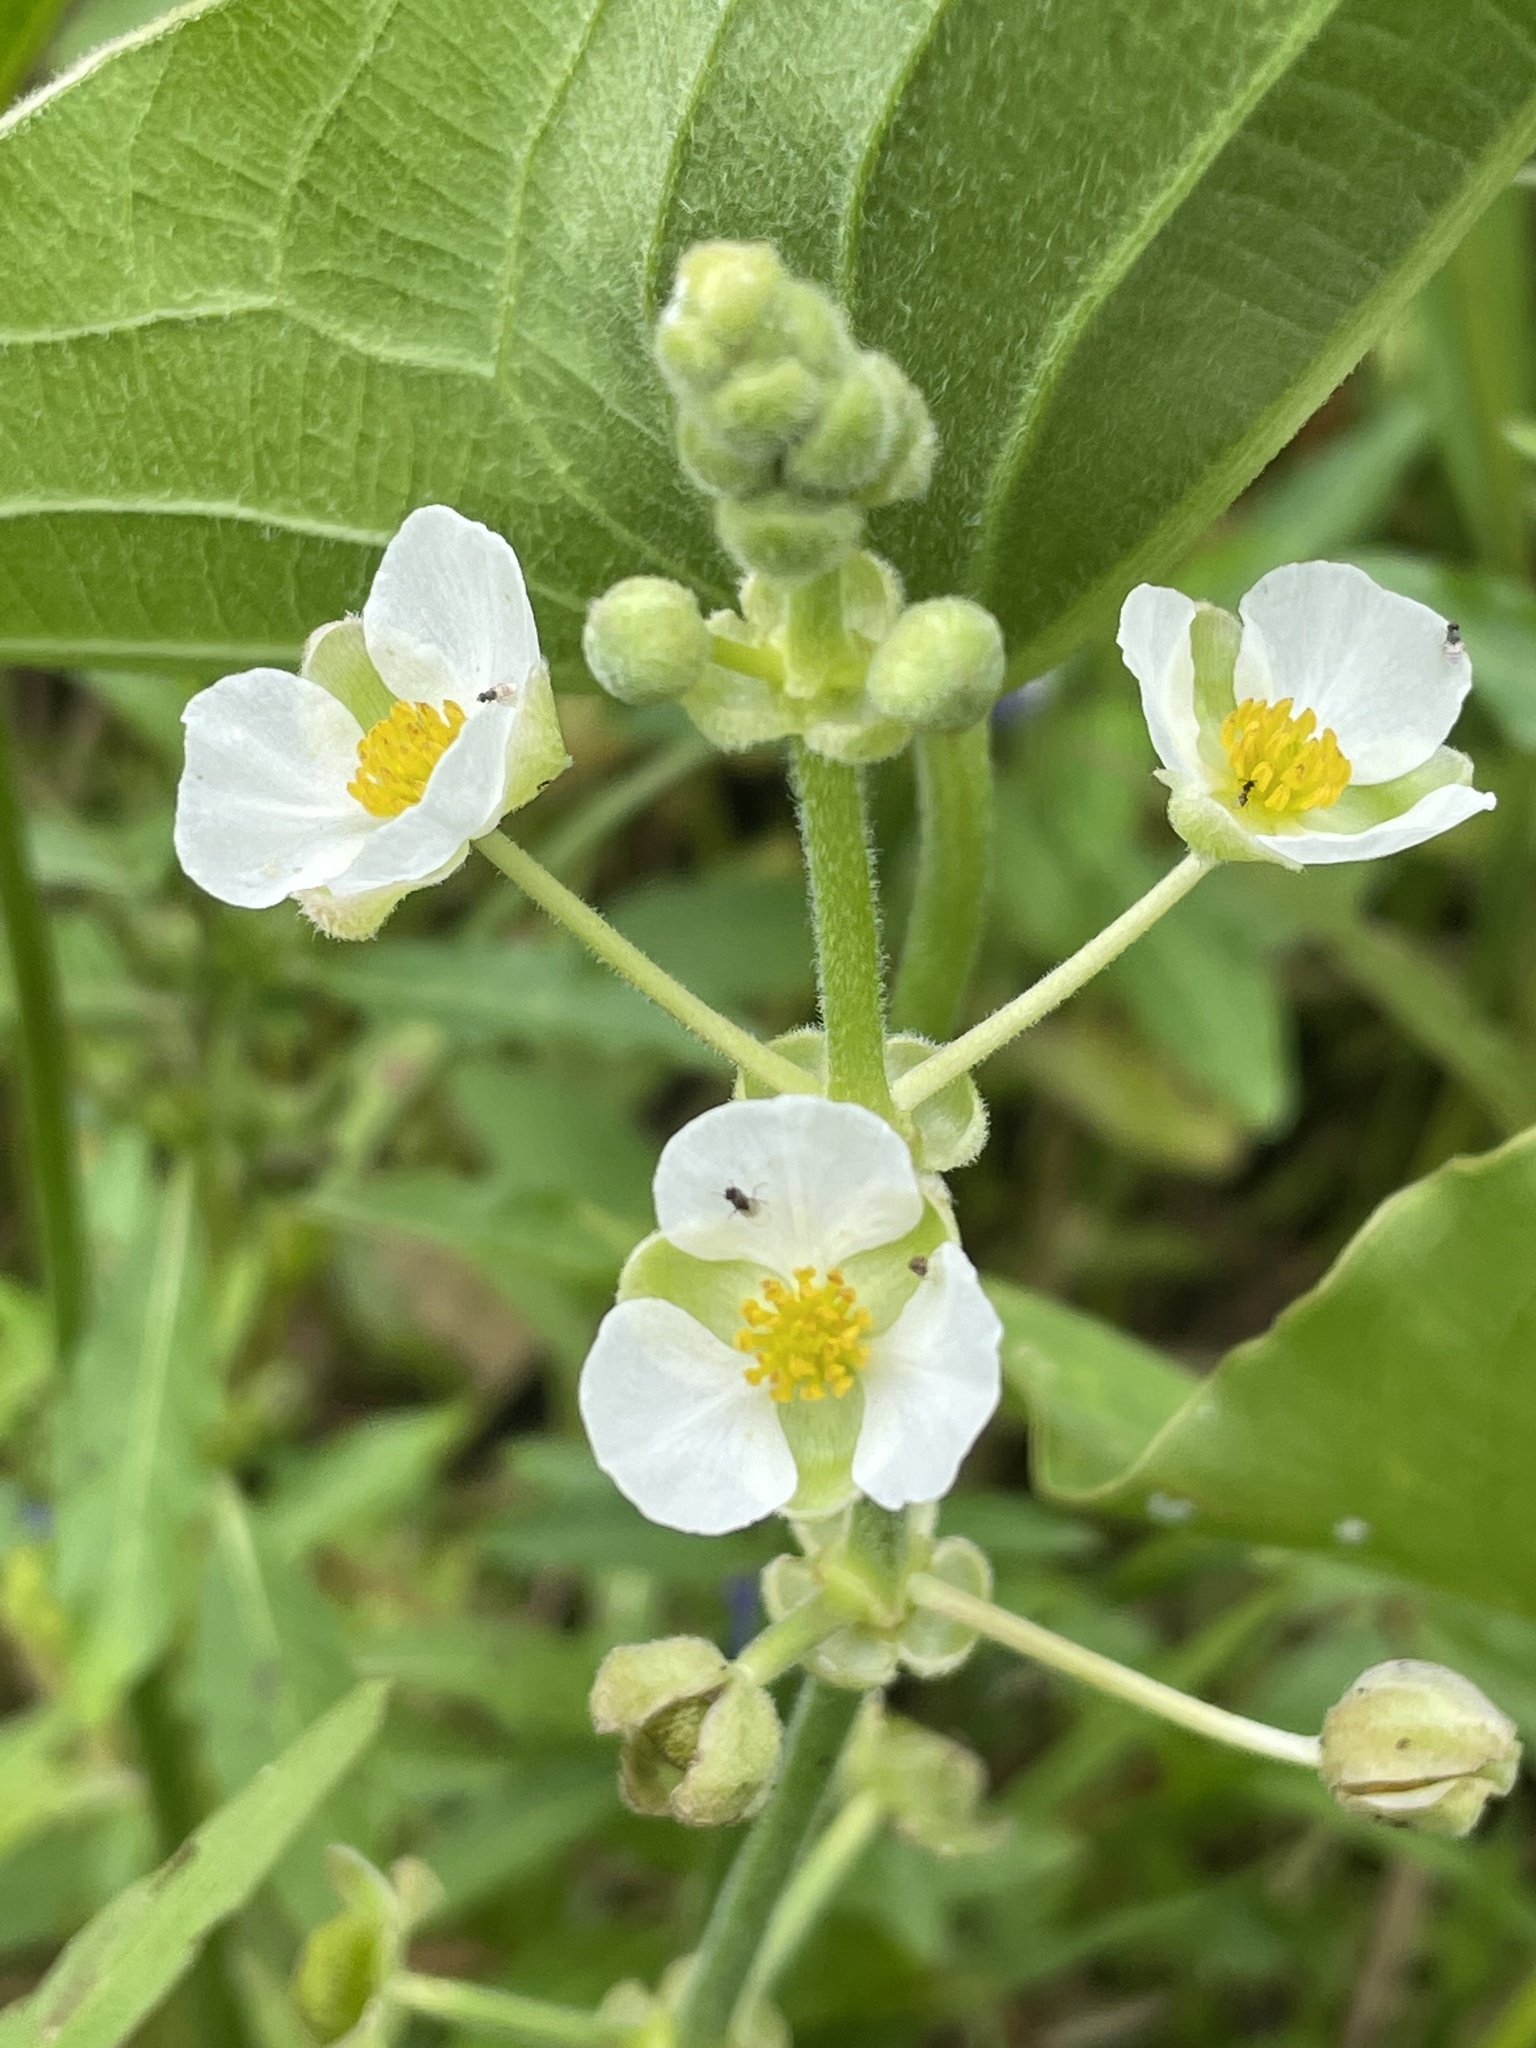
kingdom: Plantae
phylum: Tracheophyta
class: Liliopsida
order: Alismatales
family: Alismataceae
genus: Sagittaria
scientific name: Sagittaria latifolia
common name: Duck-potato
